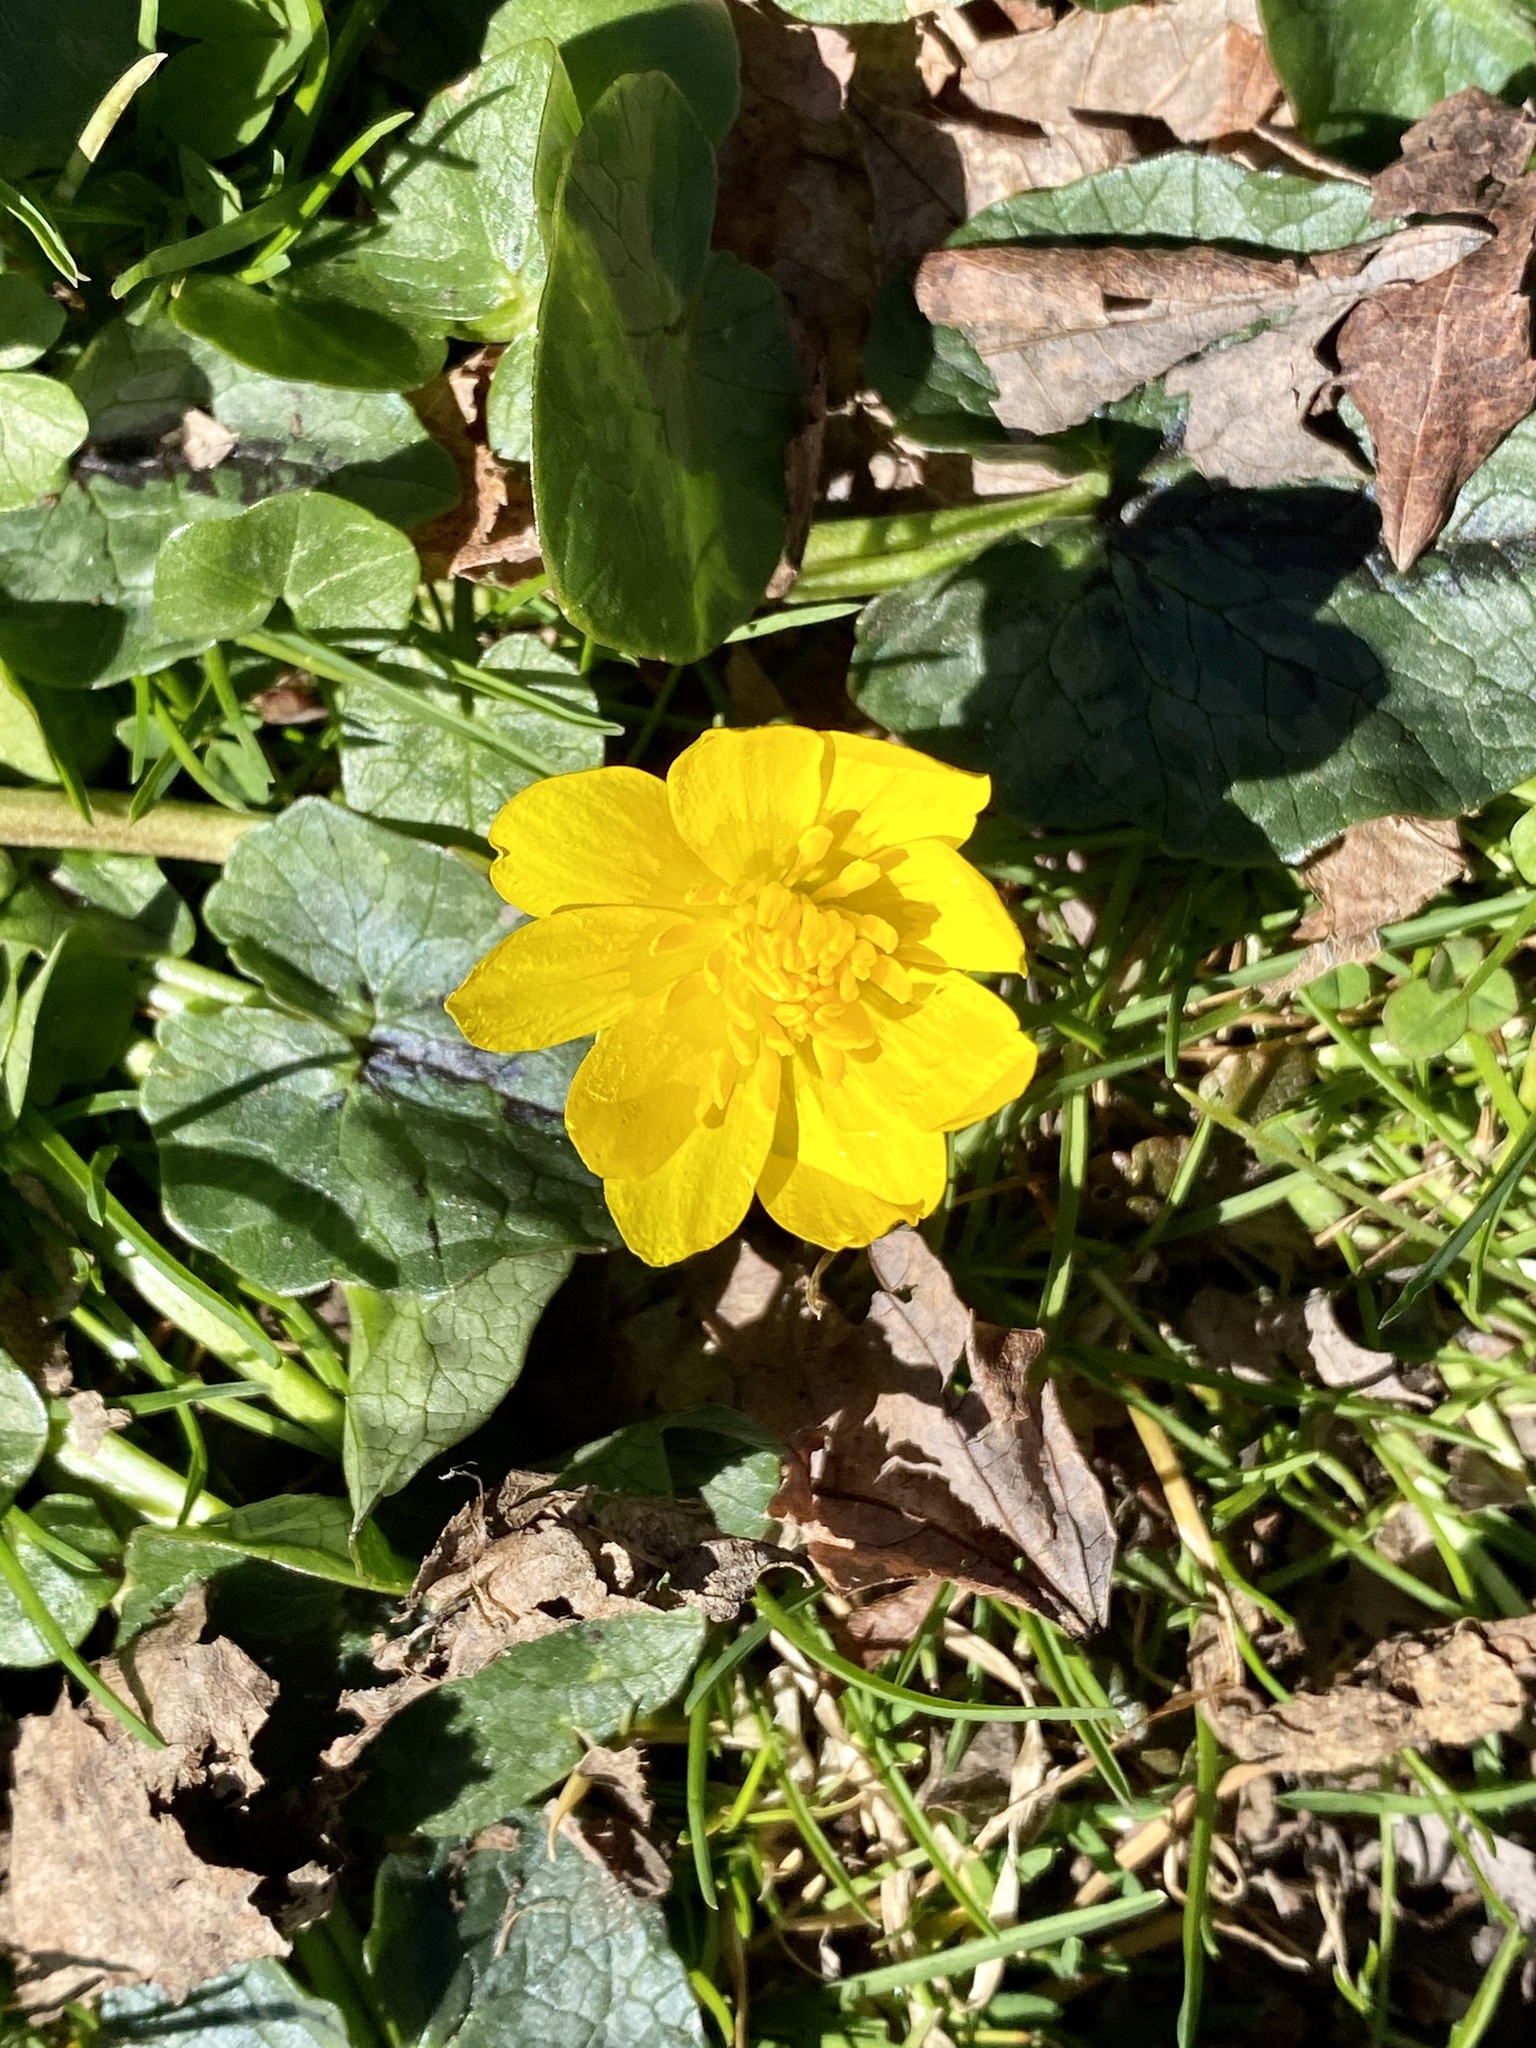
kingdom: Plantae
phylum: Tracheophyta
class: Magnoliopsida
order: Ranunculales
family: Ranunculaceae
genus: Ficaria
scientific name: Ficaria verna
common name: Lesser celandine
